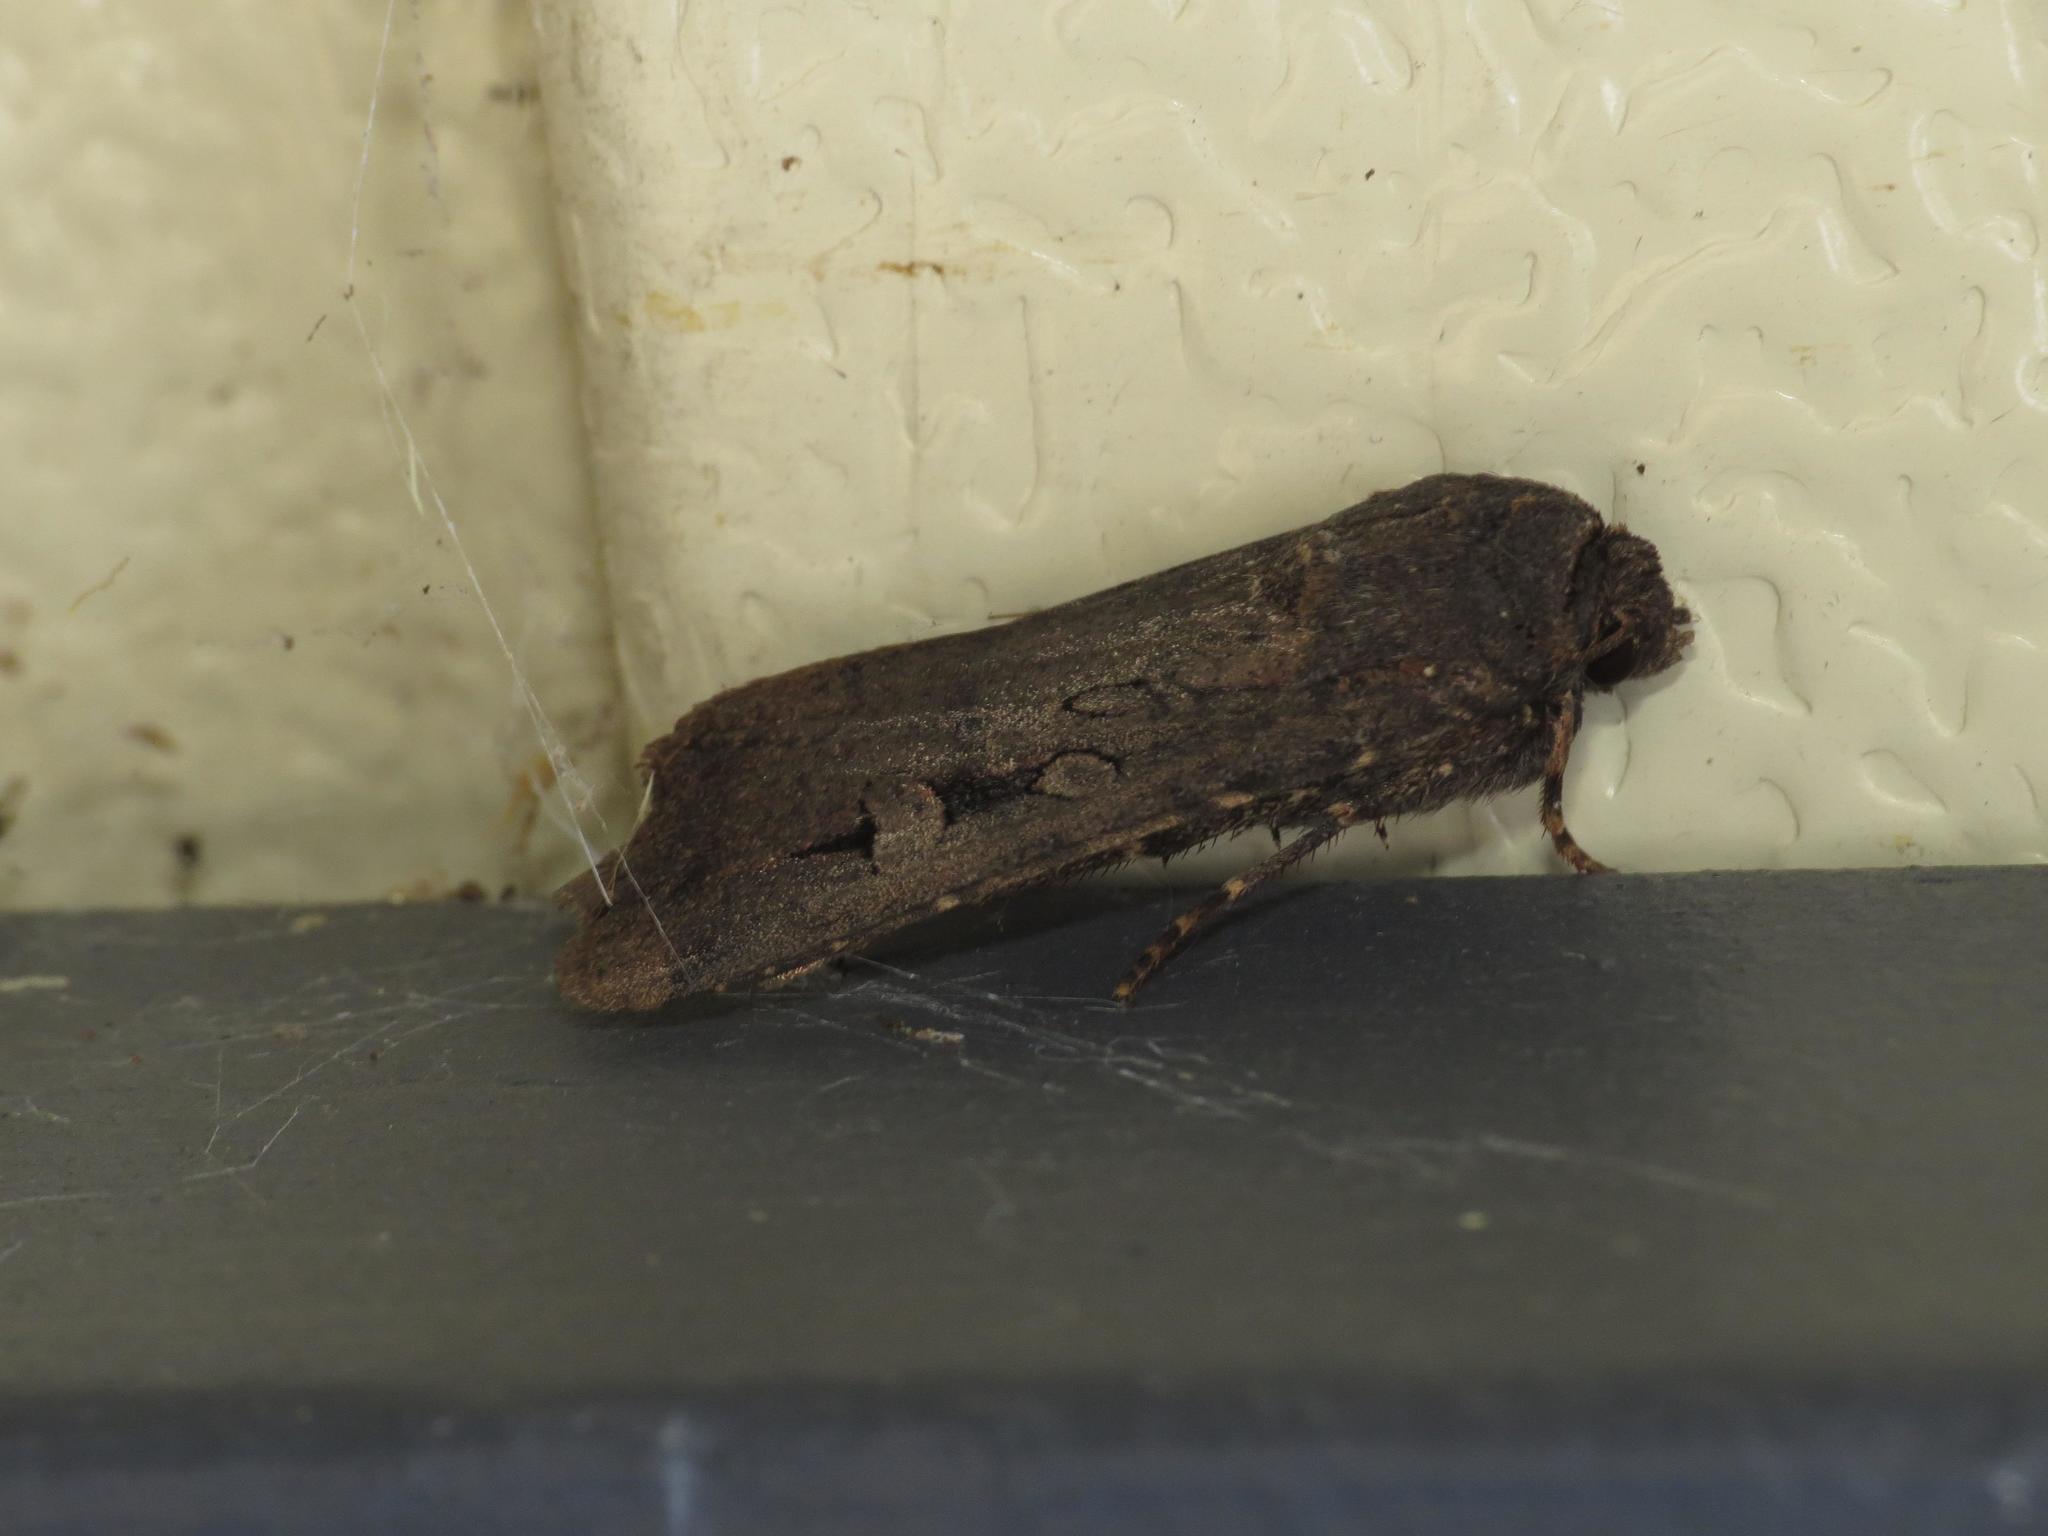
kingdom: Animalia
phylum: Arthropoda
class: Insecta
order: Lepidoptera
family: Noctuidae
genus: Agrotis
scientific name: Agrotis infusa
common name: Bogong moth
